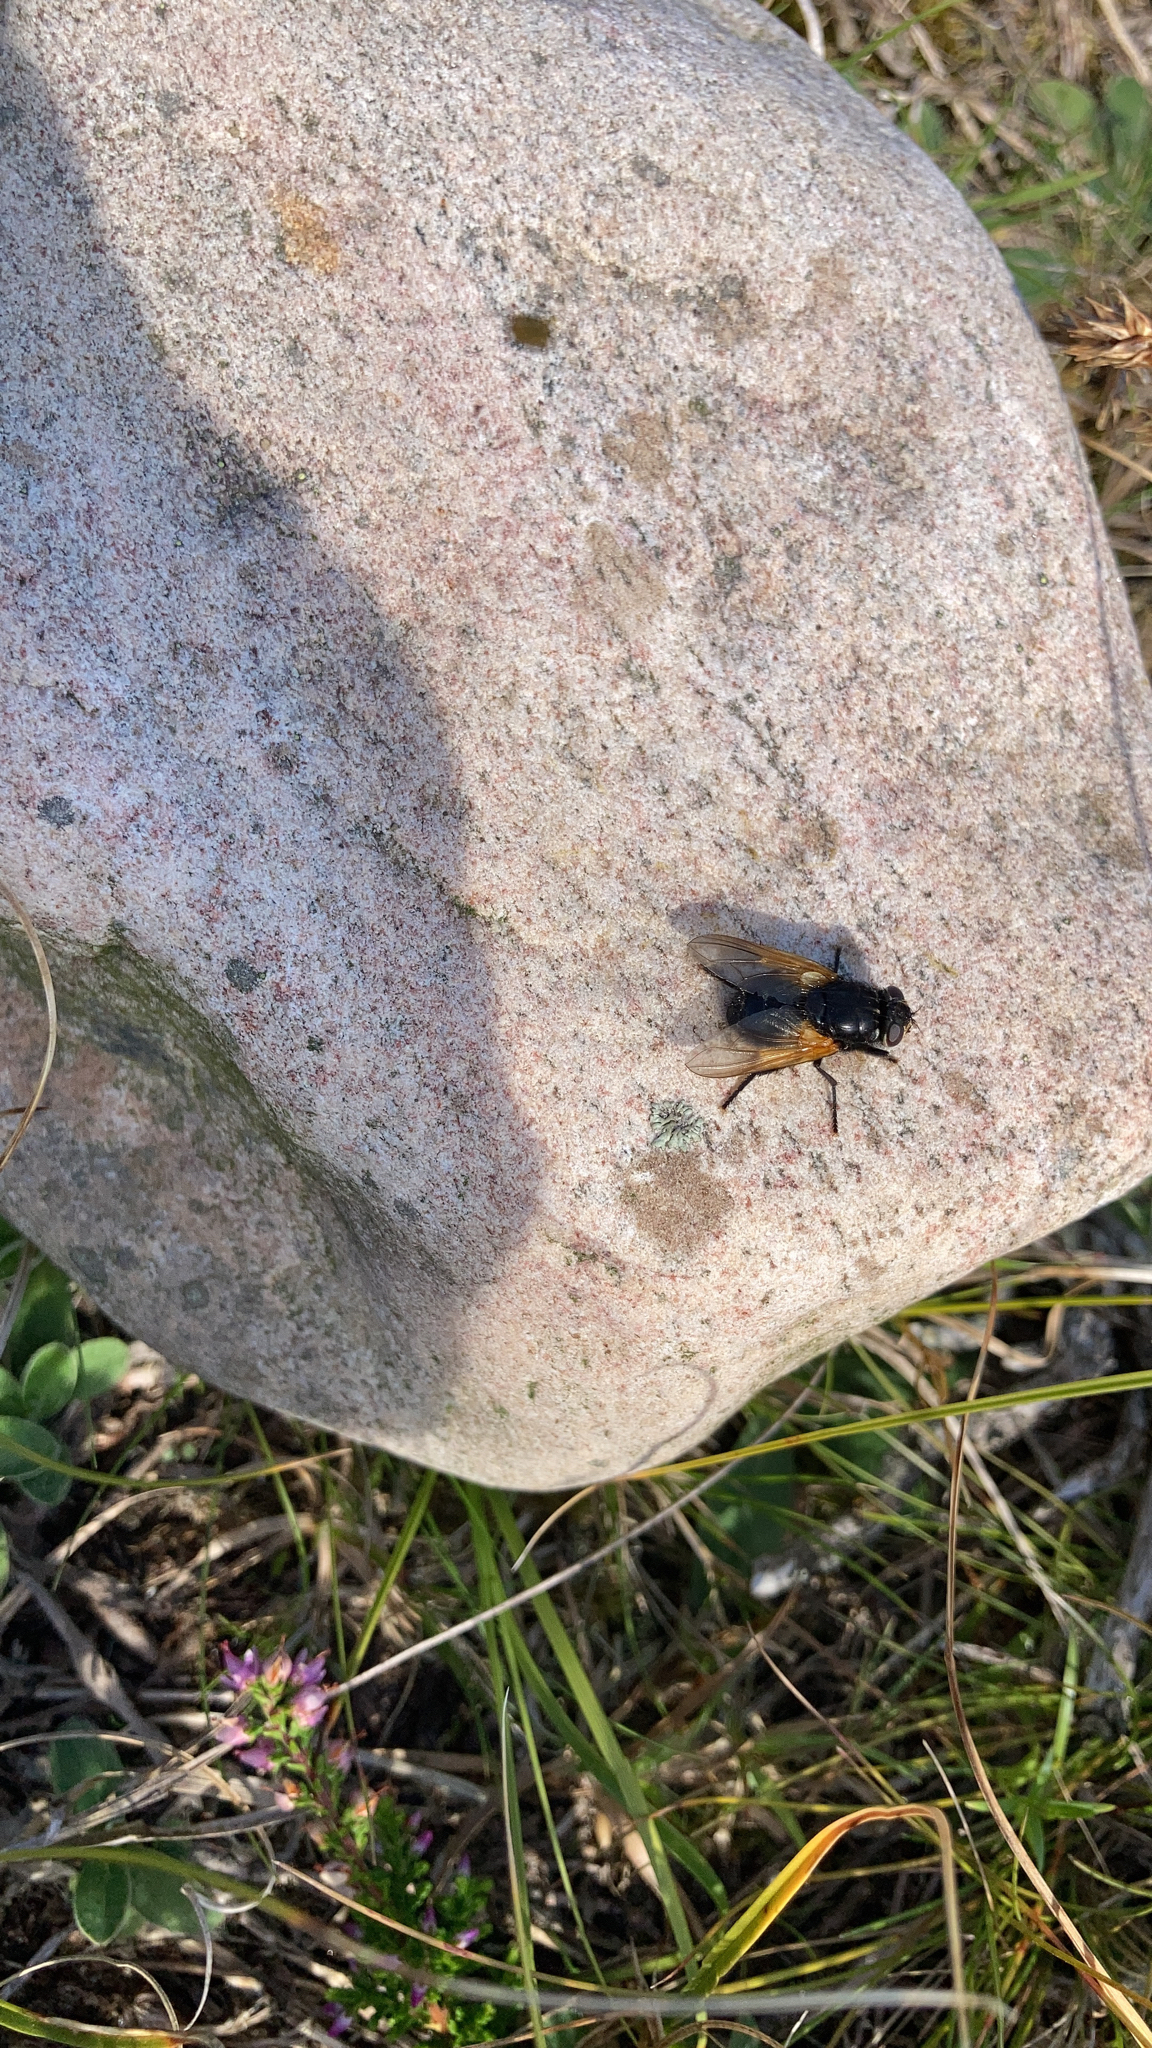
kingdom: Animalia
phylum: Arthropoda
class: Insecta
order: Diptera
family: Muscidae
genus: Mesembrina
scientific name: Mesembrina meridiana
